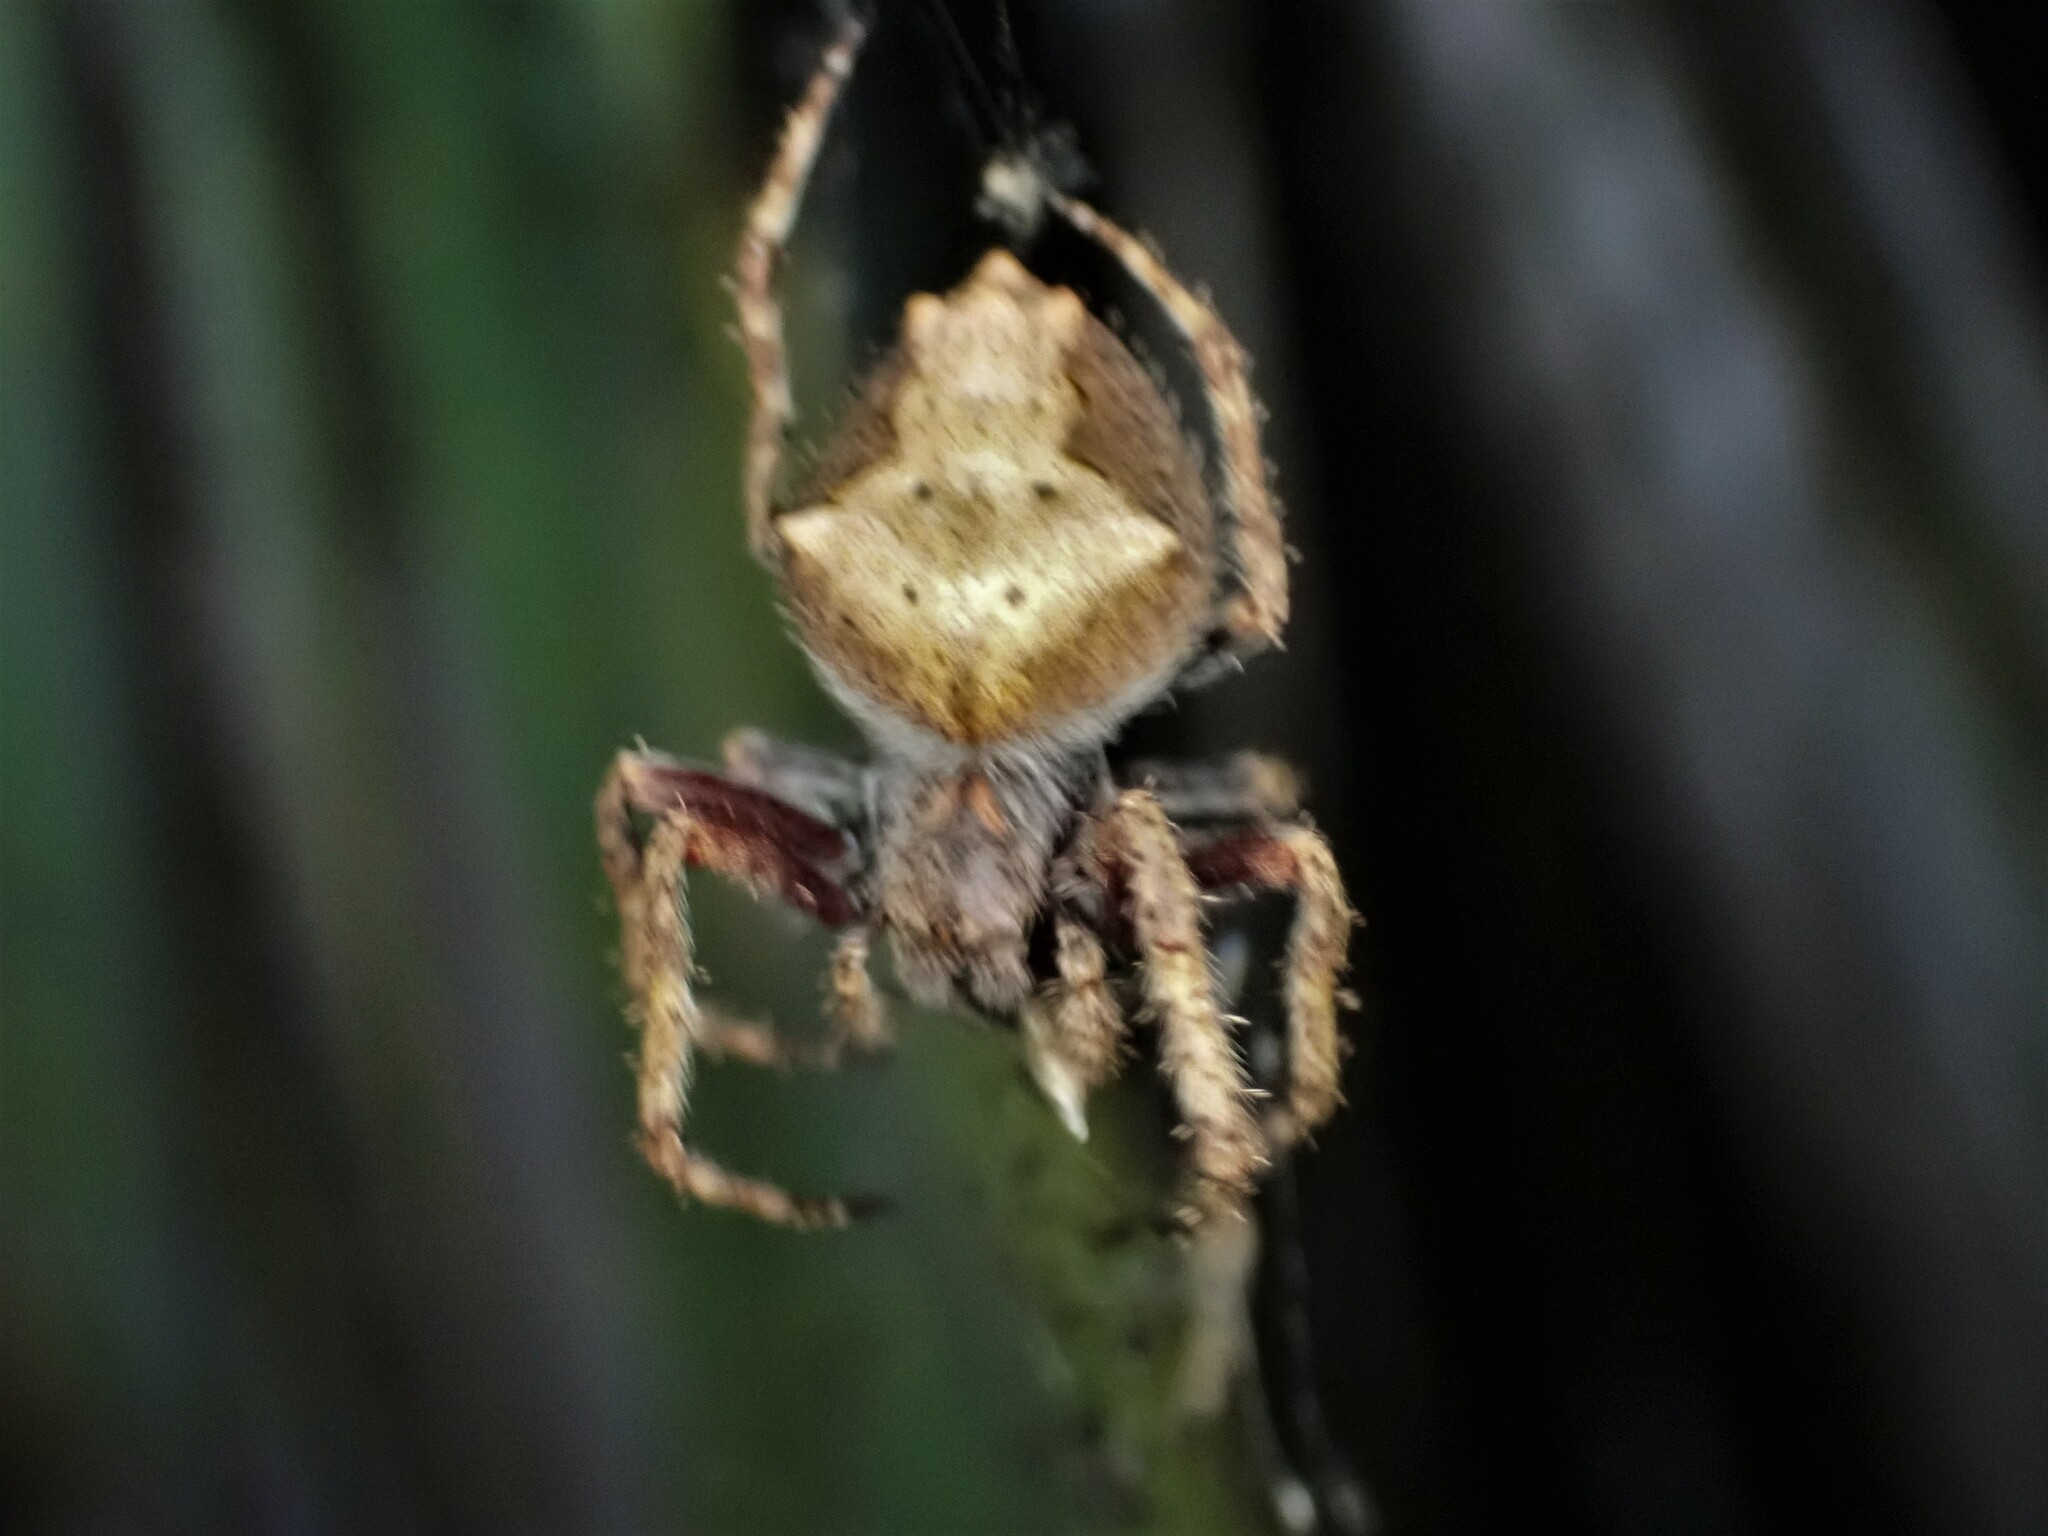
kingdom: Animalia
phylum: Arthropoda
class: Arachnida
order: Araneae
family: Araneidae
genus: Eriophora
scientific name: Eriophora pustulosa
